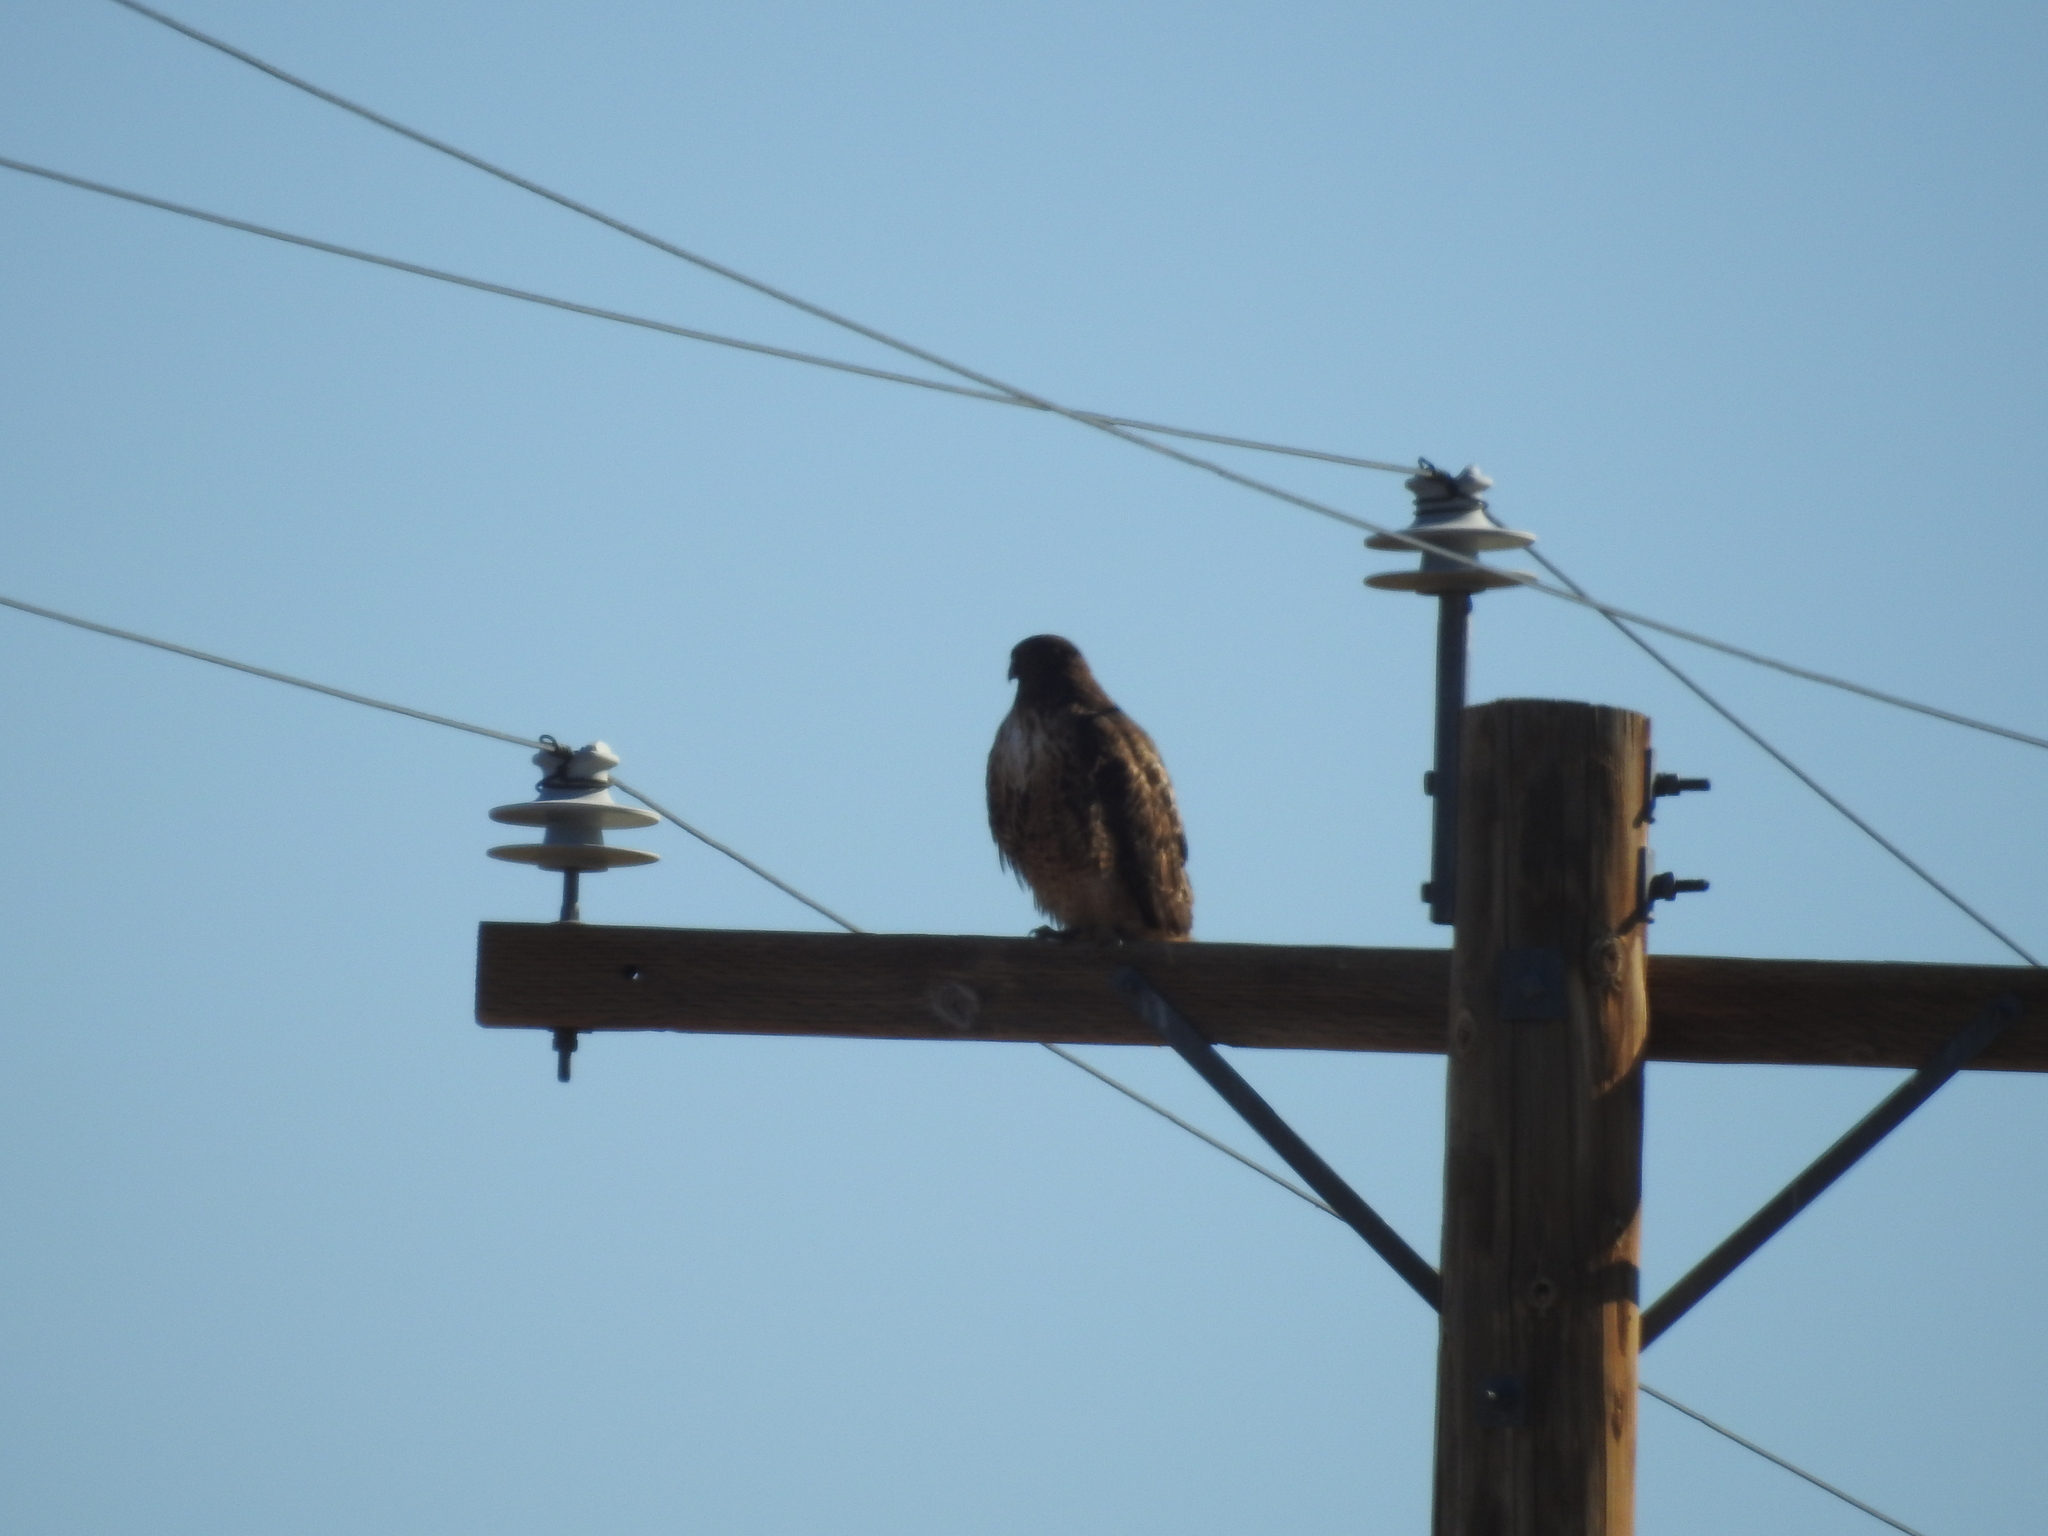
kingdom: Animalia
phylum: Chordata
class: Aves
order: Accipitriformes
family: Accipitridae
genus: Buteo
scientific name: Buteo jamaicensis
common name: Red-tailed hawk
